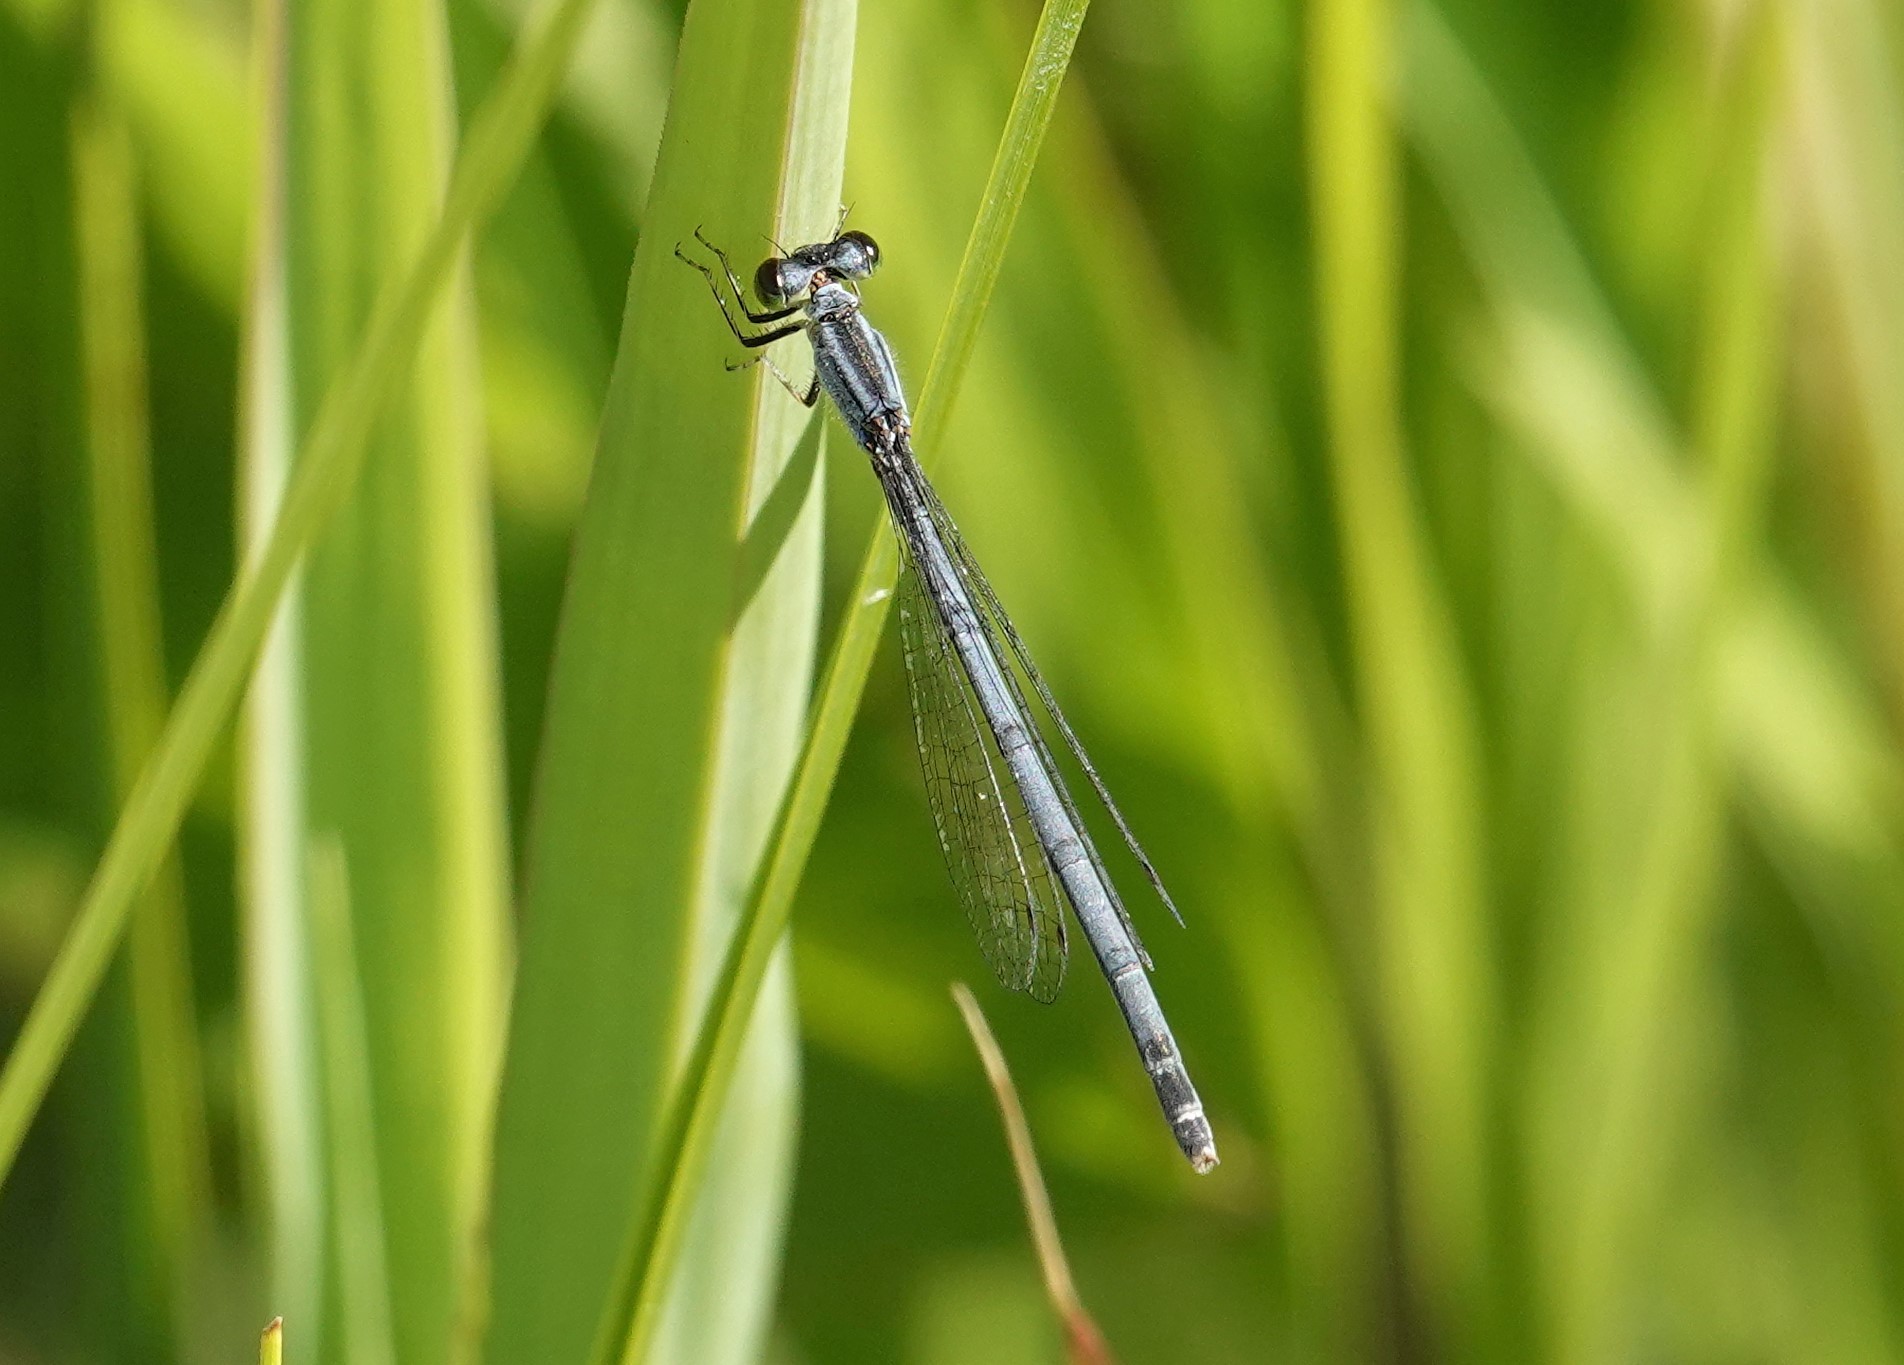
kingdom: Animalia
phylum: Arthropoda
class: Insecta
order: Odonata
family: Coenagrionidae
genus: Ischnura
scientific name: Ischnura verticalis
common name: Eastern forktail
